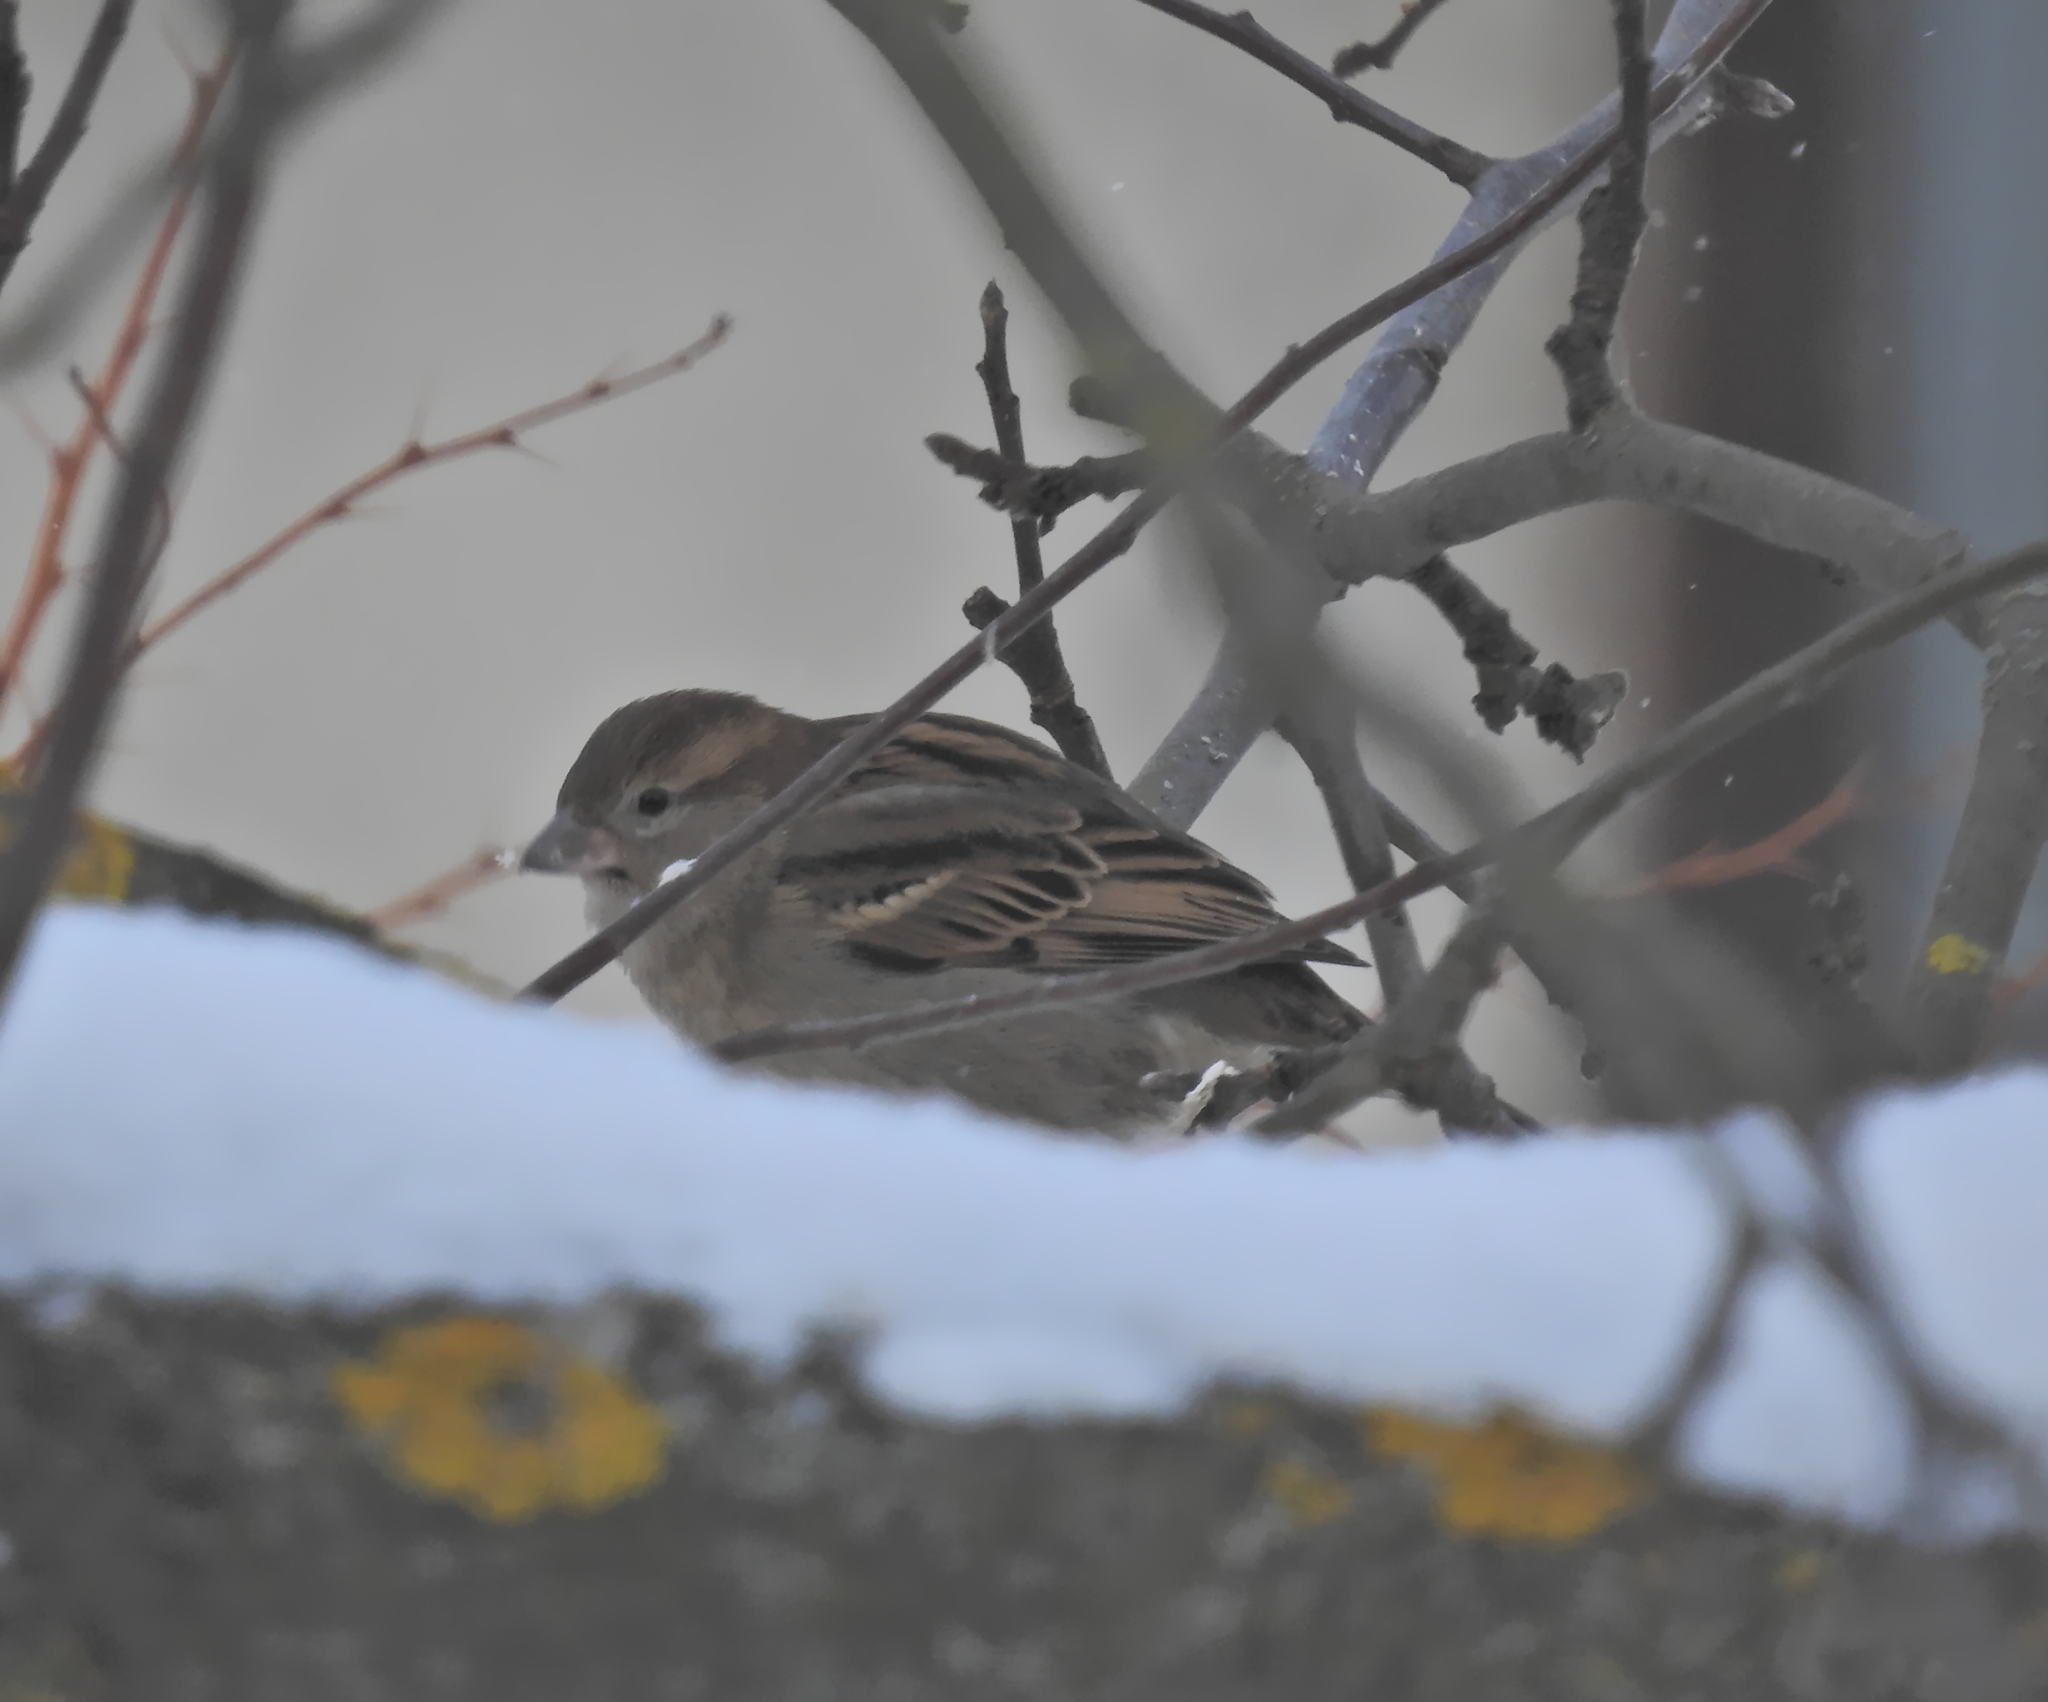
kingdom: Animalia
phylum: Chordata
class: Aves
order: Passeriformes
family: Passeridae
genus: Passer
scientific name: Passer domesticus
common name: House sparrow
